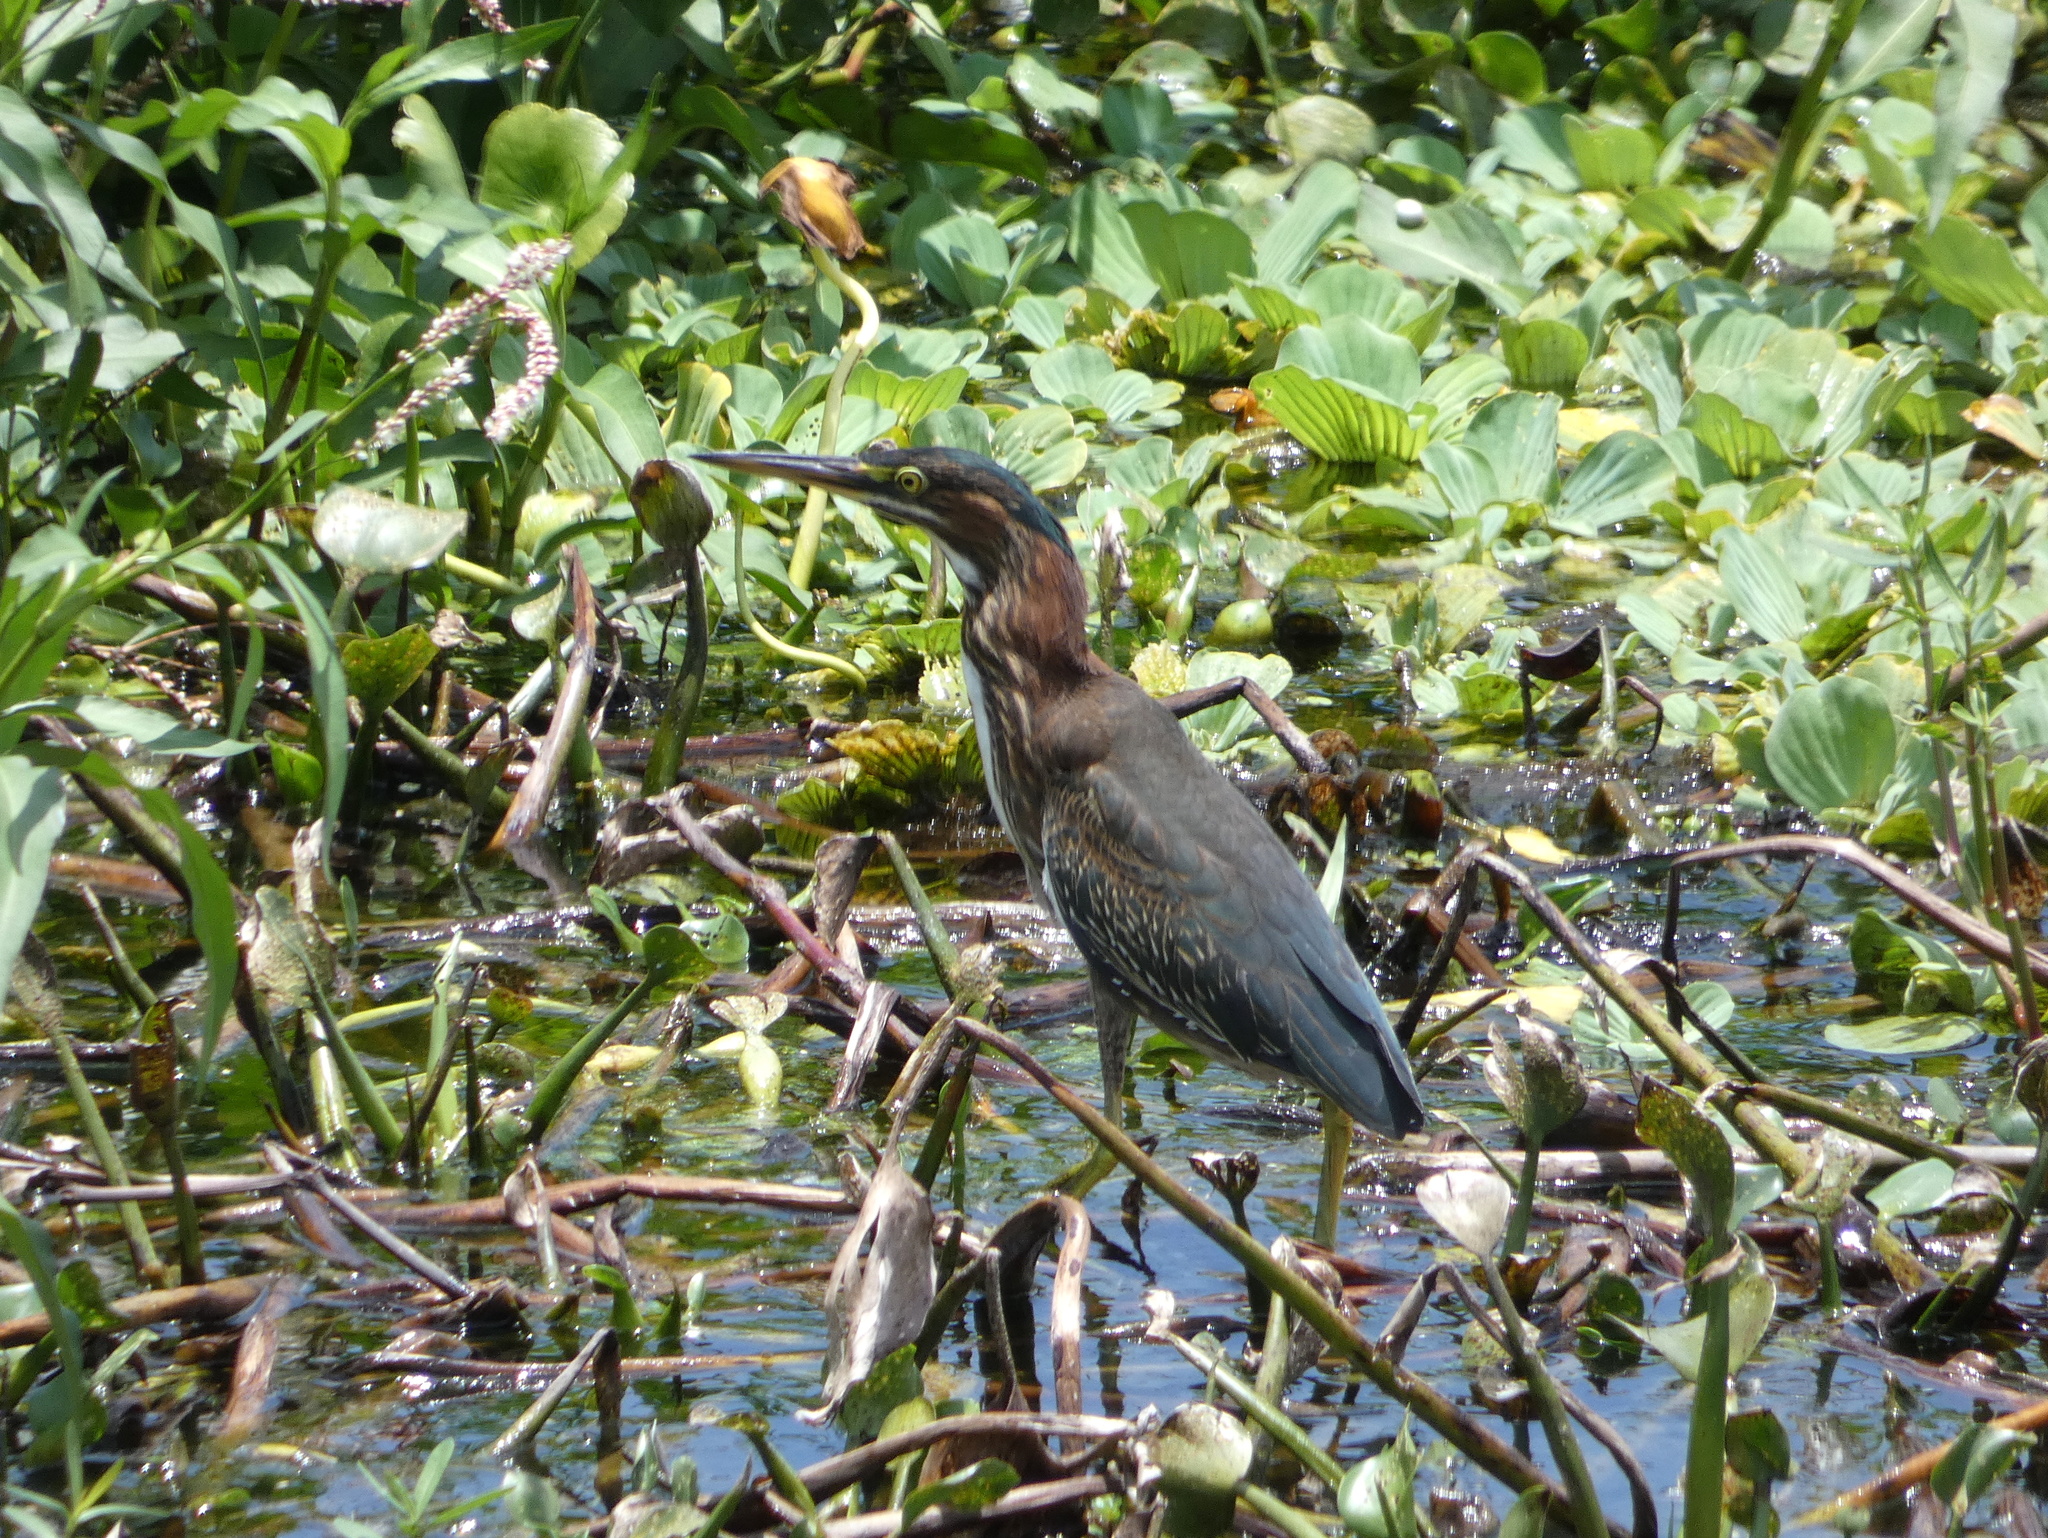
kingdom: Animalia
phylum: Chordata
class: Aves
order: Pelecaniformes
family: Ardeidae
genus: Butorides
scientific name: Butorides virescens
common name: Green heron
